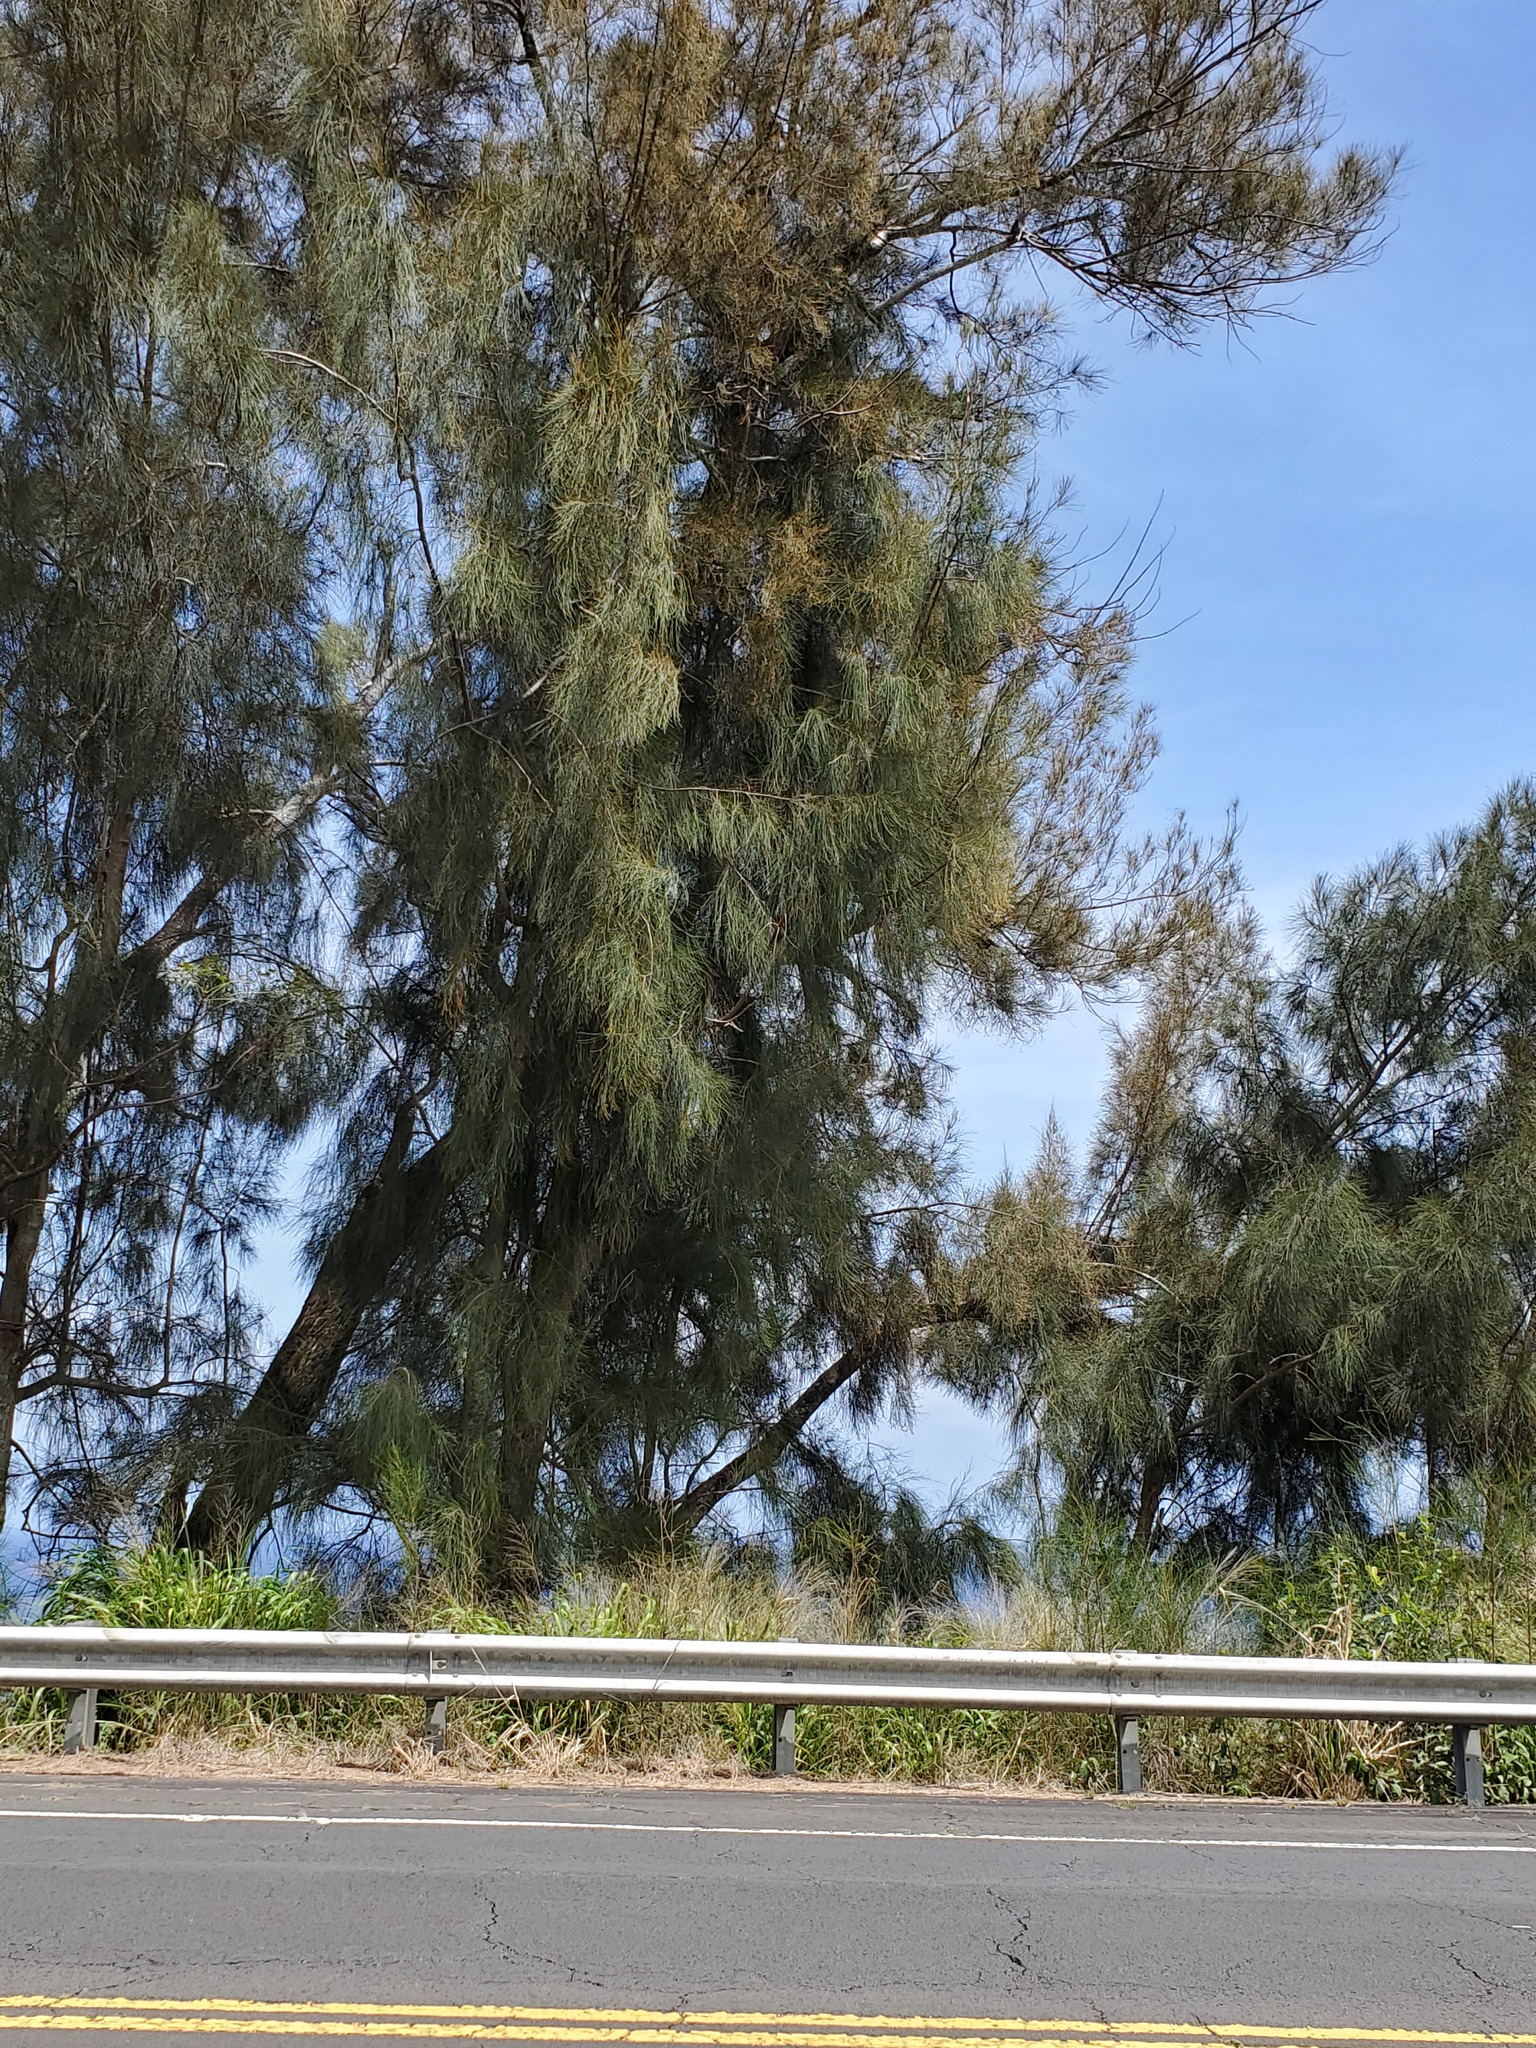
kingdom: Plantae
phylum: Tracheophyta
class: Magnoliopsida
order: Fagales
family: Casuarinaceae
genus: Casuarina
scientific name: Casuarina equisetifolia
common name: Beach sheoak
